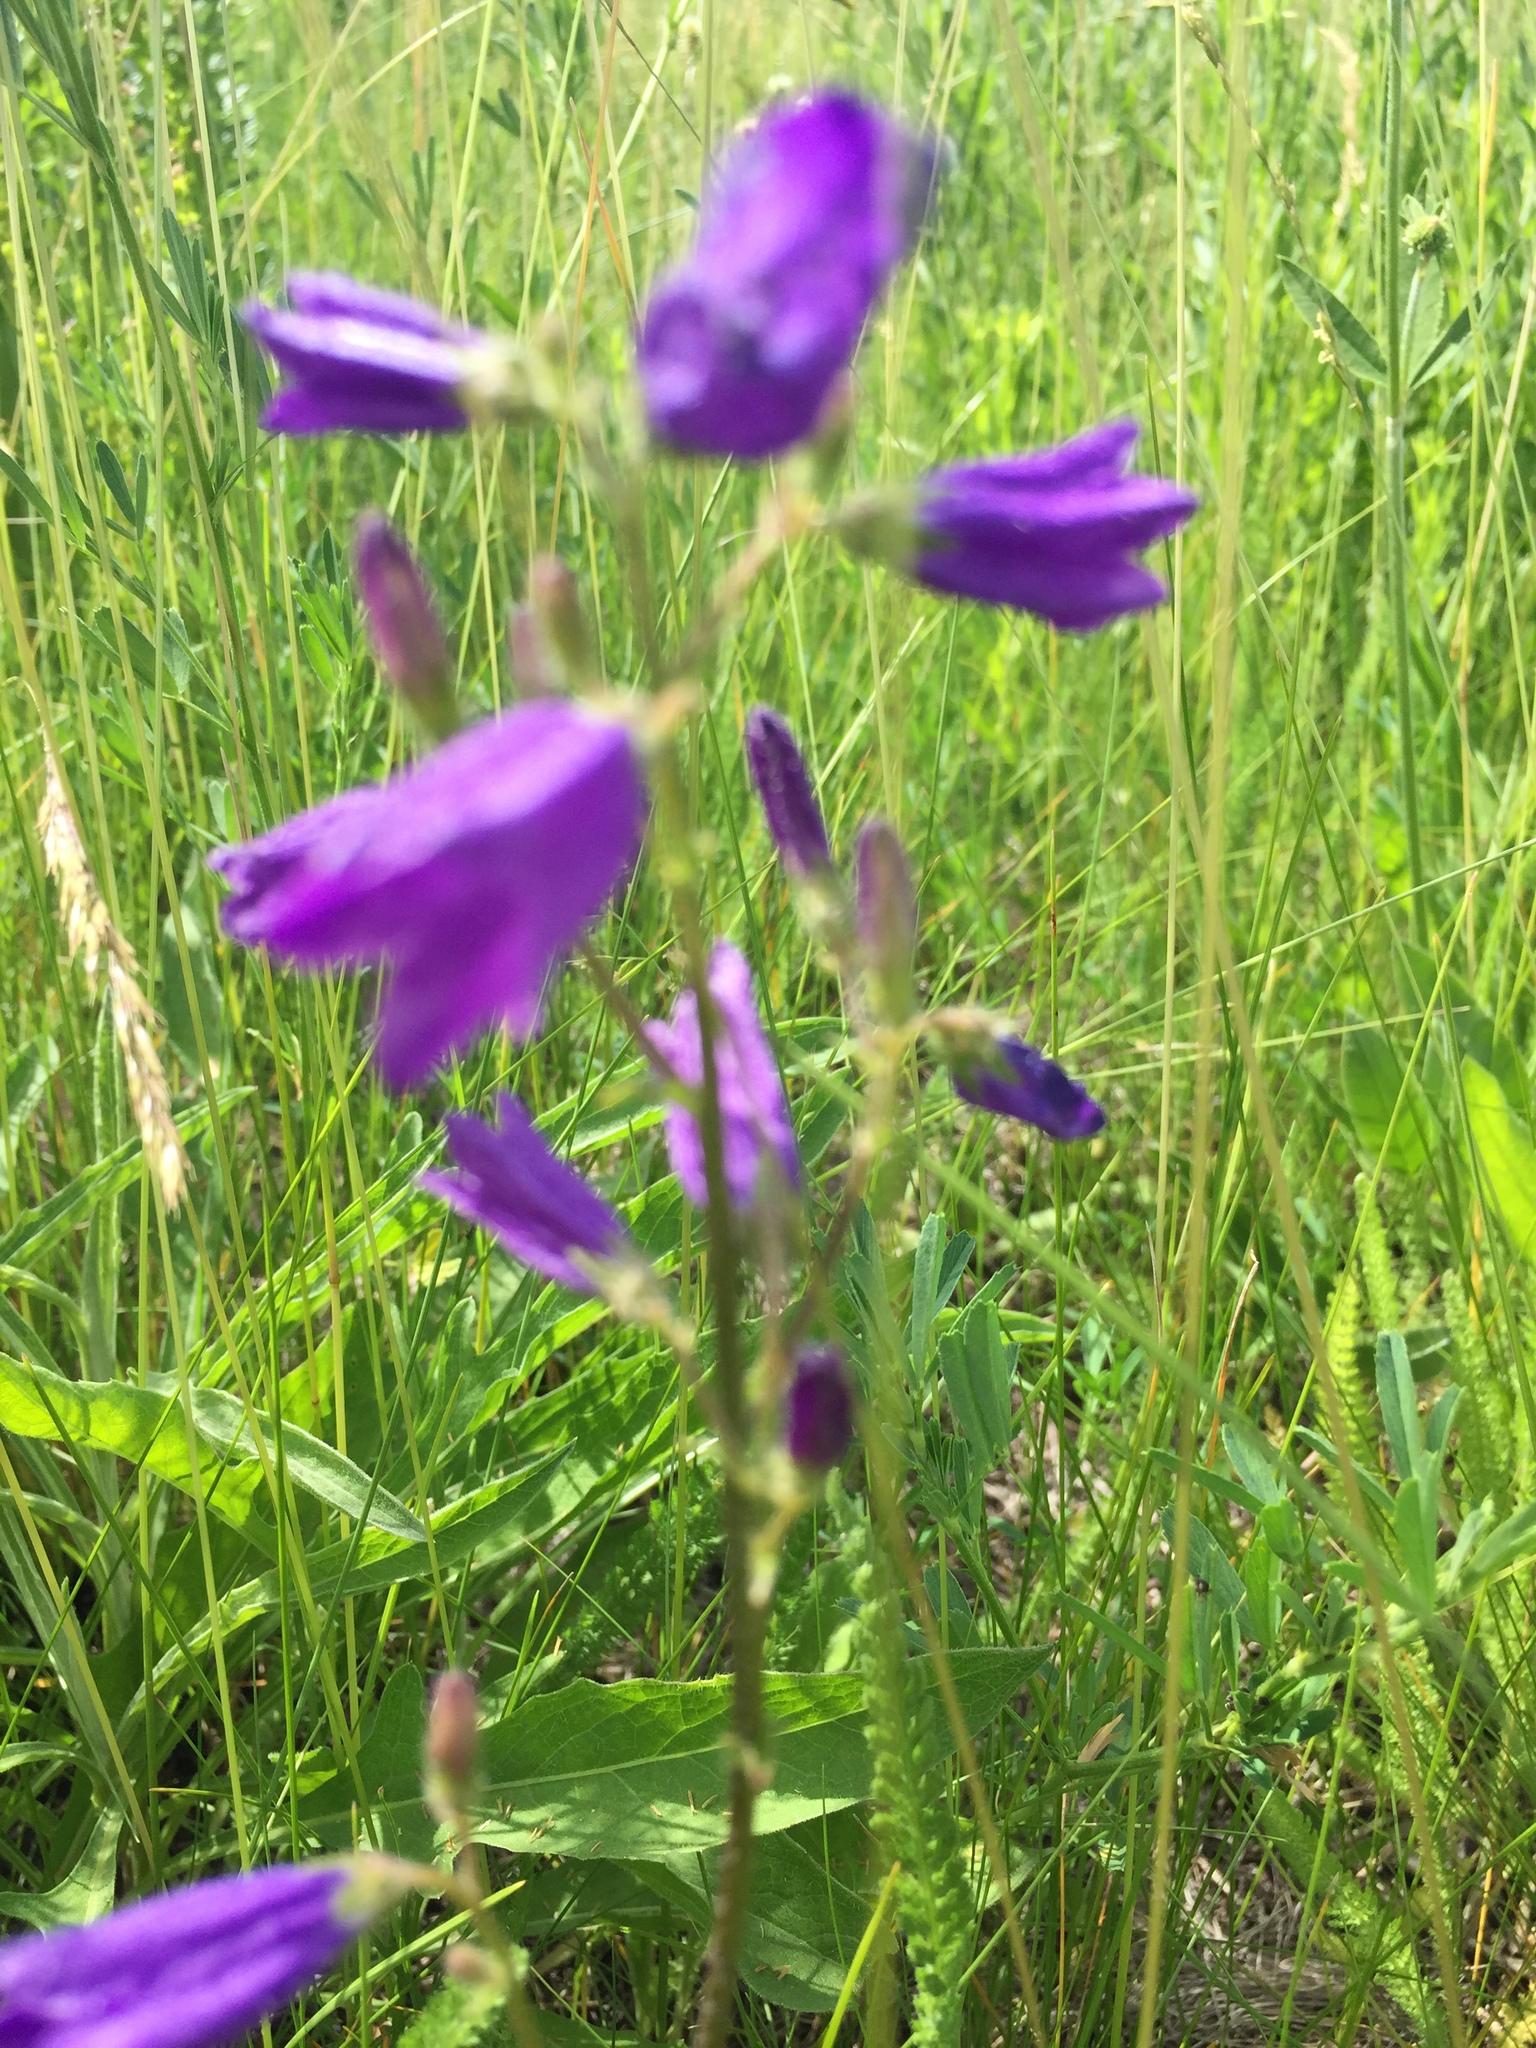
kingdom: Plantae
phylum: Tracheophyta
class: Magnoliopsida
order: Asterales
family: Campanulaceae
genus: Campanula
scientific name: Campanula sibirica
